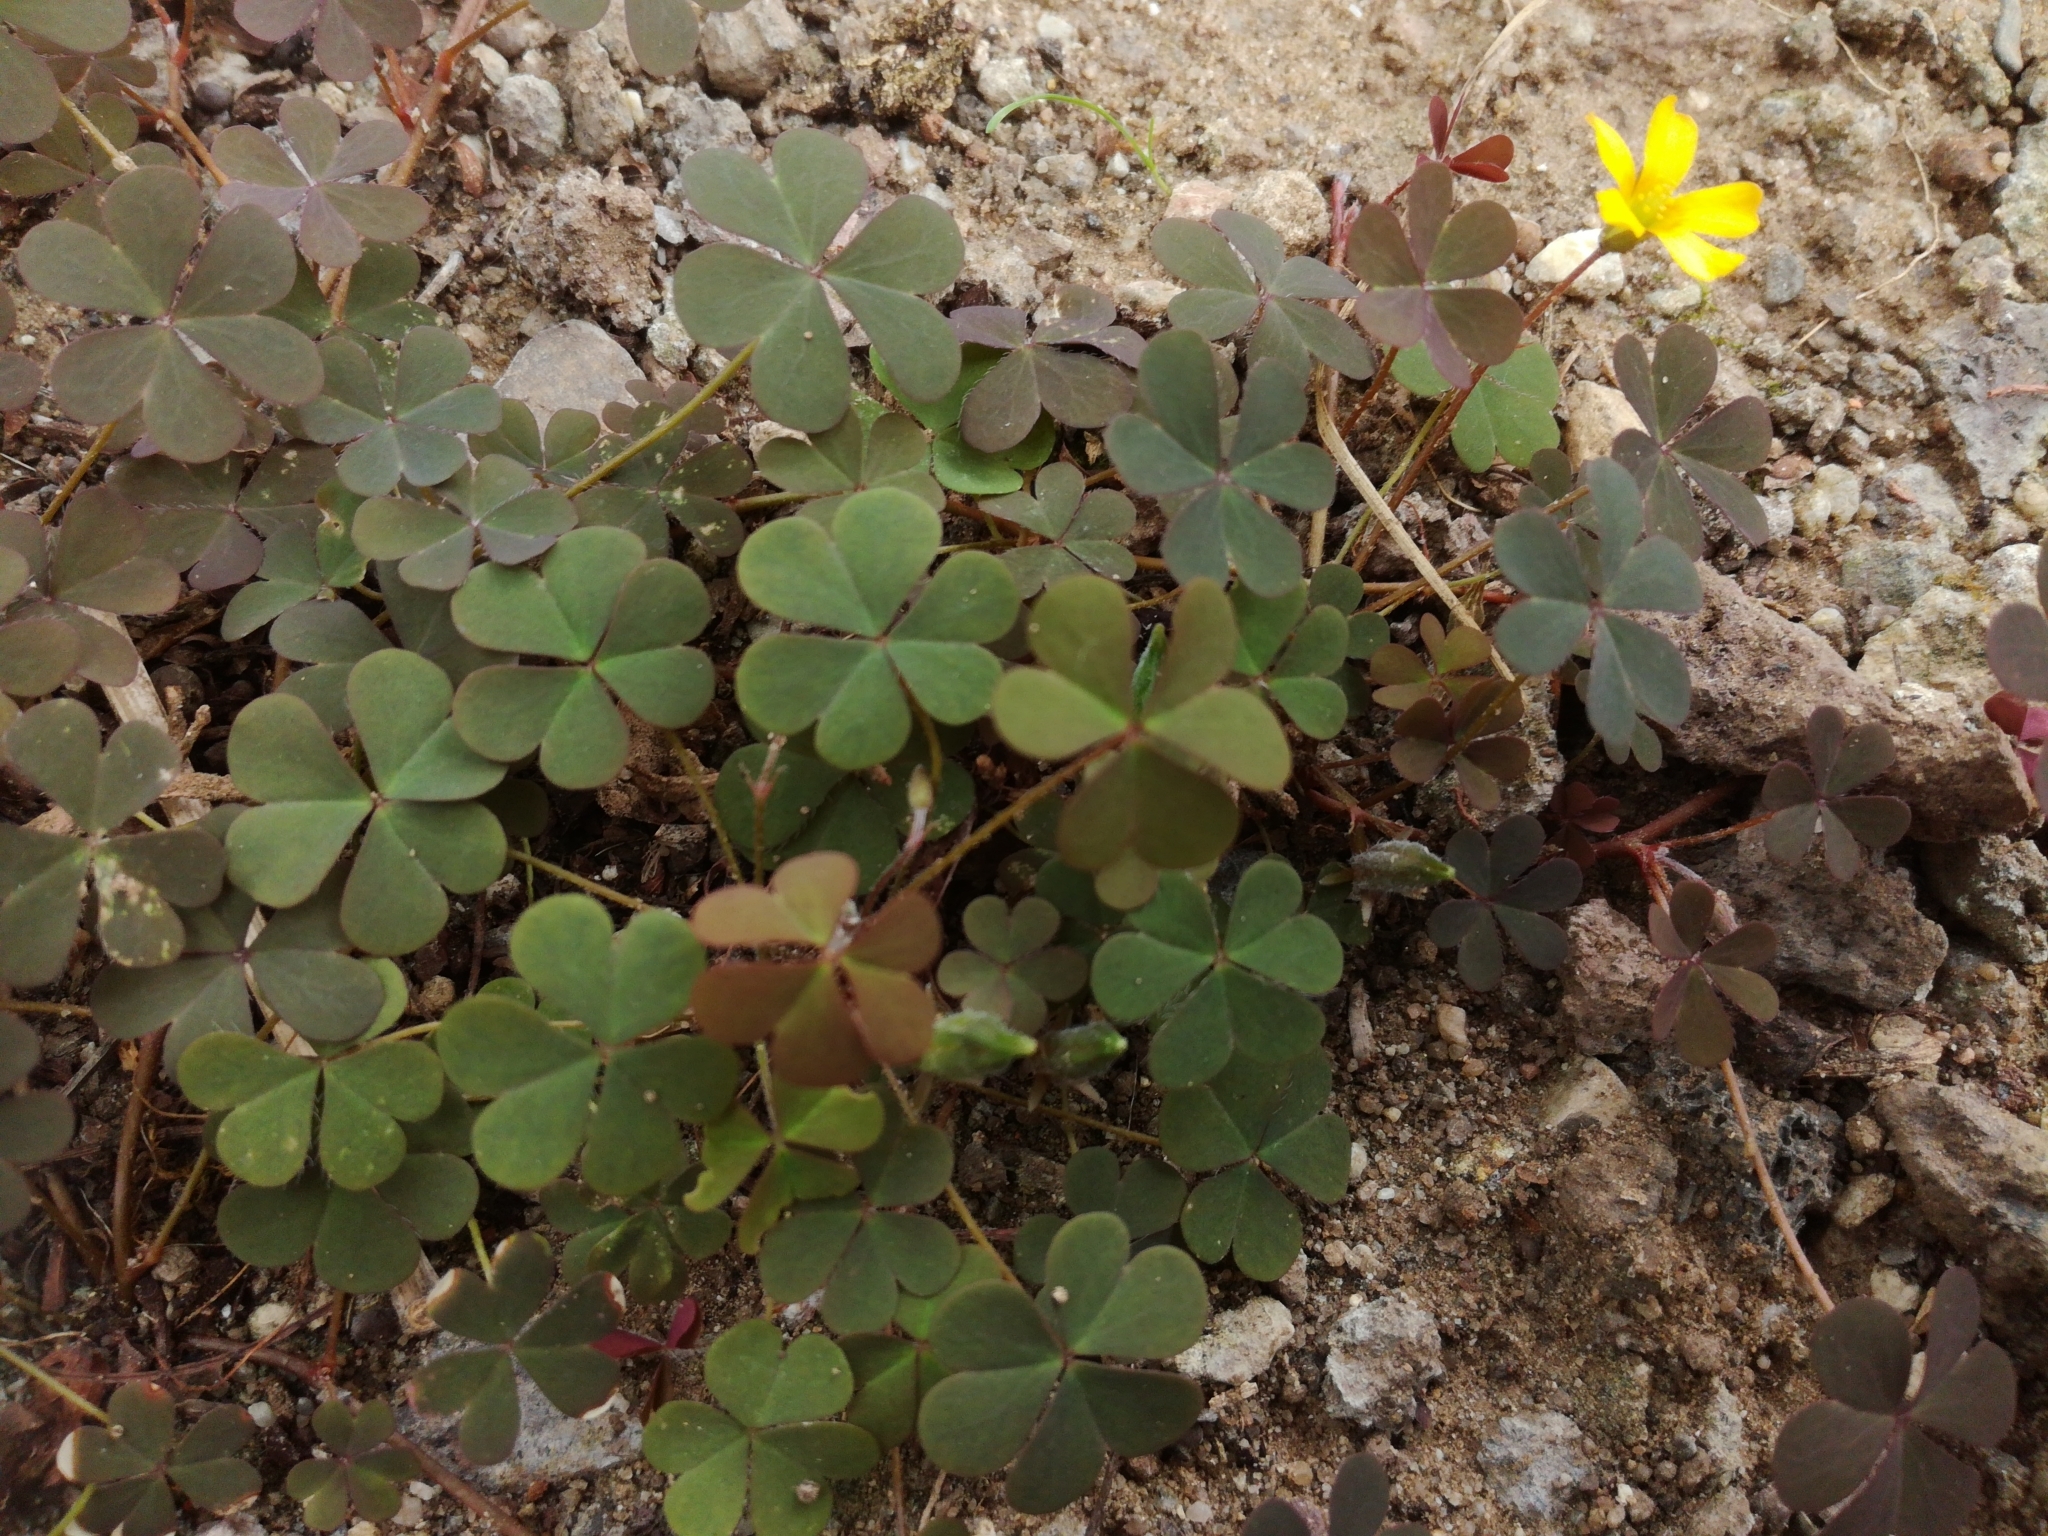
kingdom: Plantae
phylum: Tracheophyta
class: Magnoliopsida
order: Oxalidales
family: Oxalidaceae
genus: Oxalis
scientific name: Oxalis corniculata
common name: Procumbent yellow-sorrel
